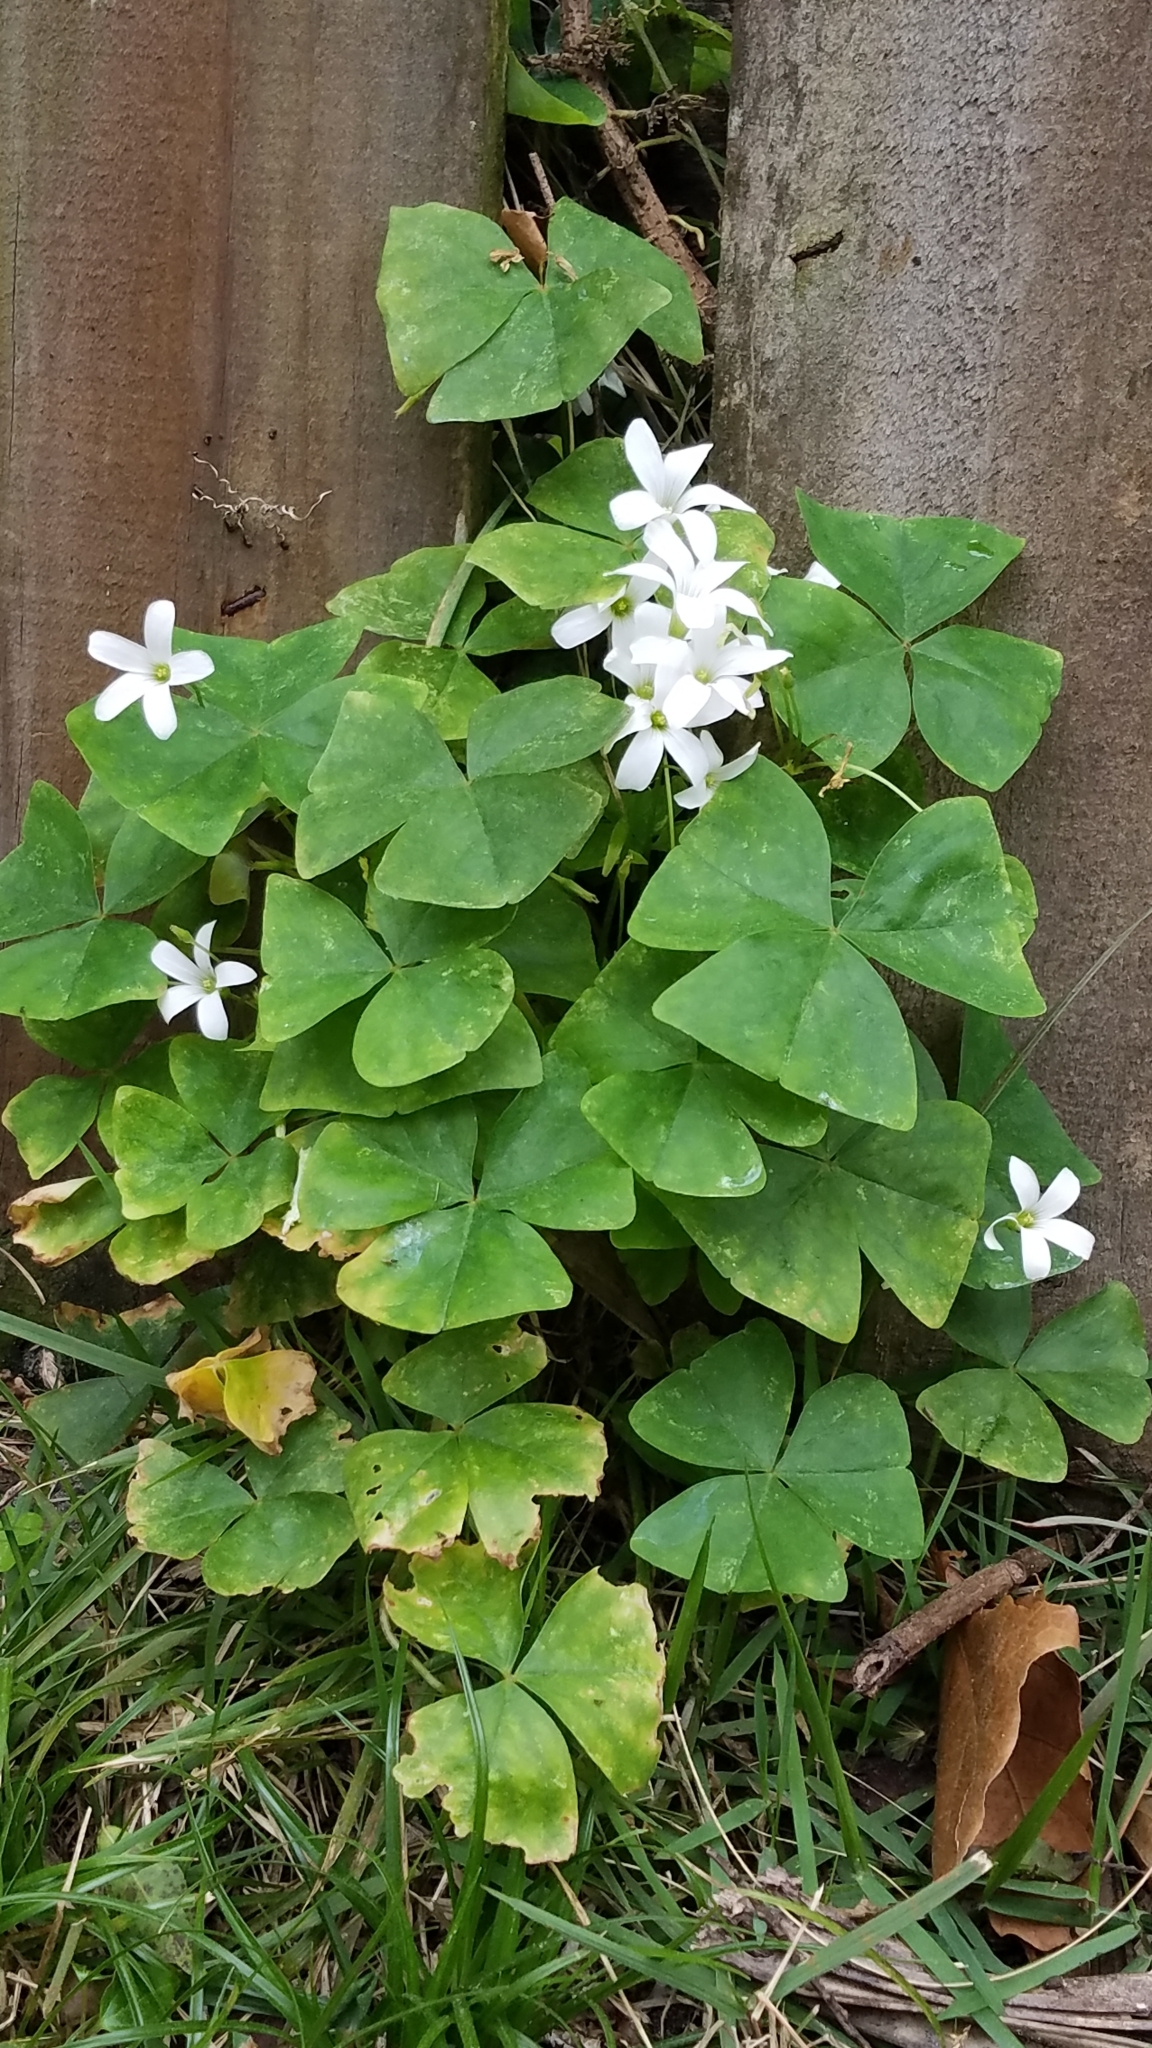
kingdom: Plantae
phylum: Tracheophyta
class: Magnoliopsida
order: Oxalidales
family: Oxalidaceae
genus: Oxalis
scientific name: Oxalis triangularis
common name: Wood sorrel
